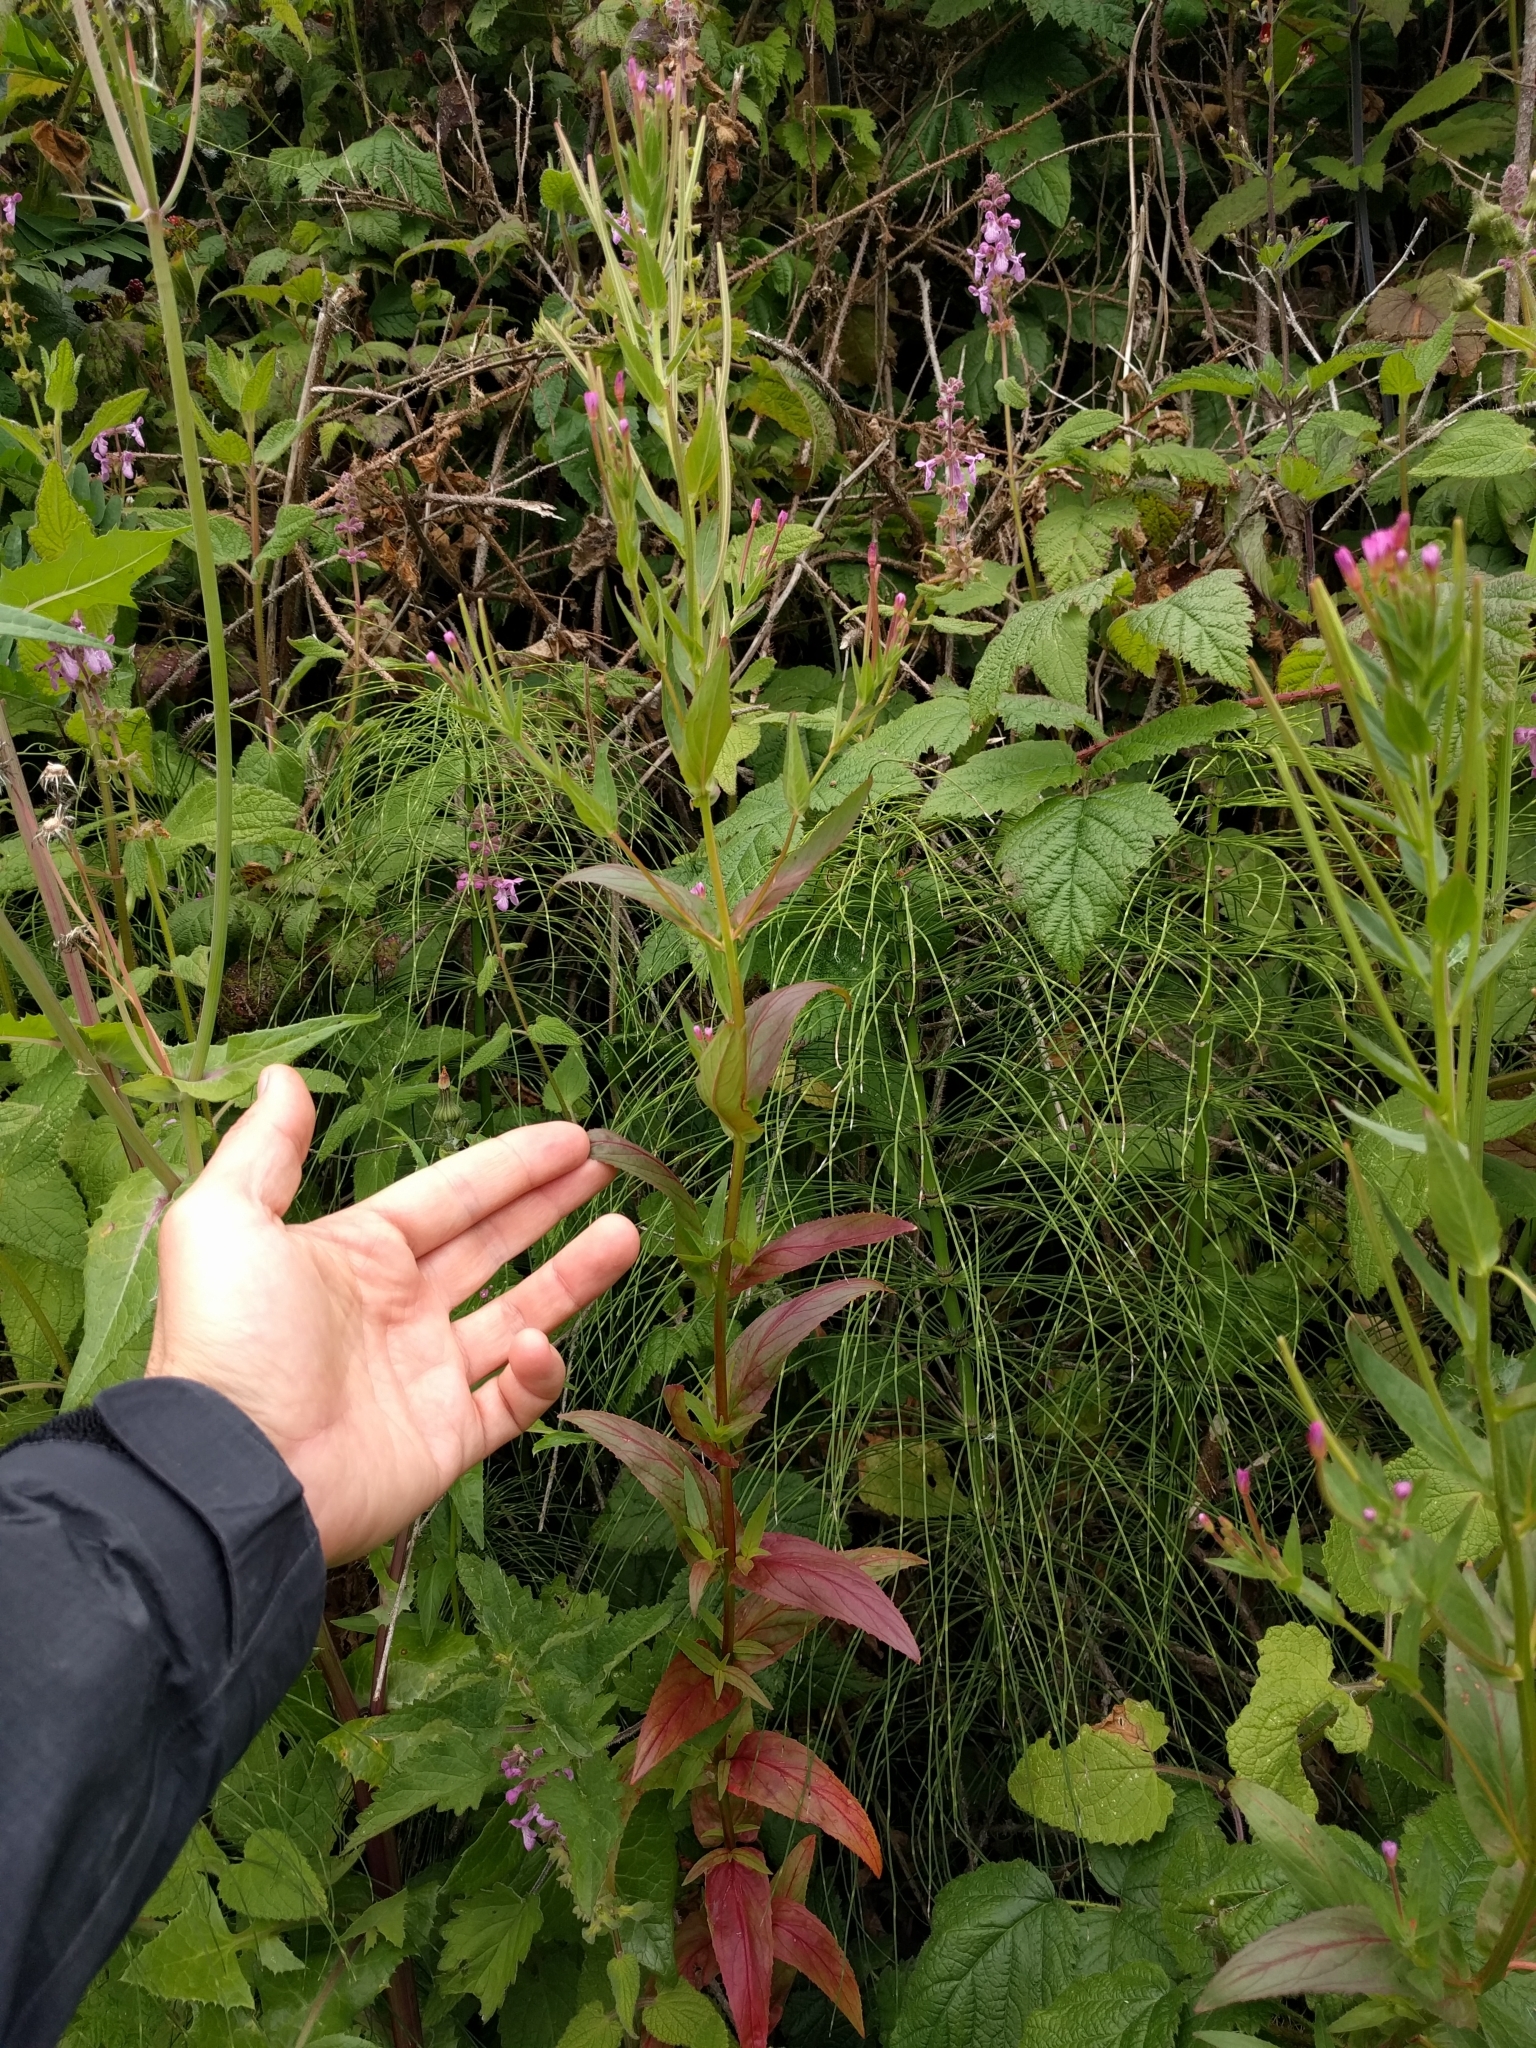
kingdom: Plantae
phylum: Tracheophyta
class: Magnoliopsida
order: Myrtales
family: Onagraceae
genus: Epilobium
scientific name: Epilobium ciliatum
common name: American willowherb
